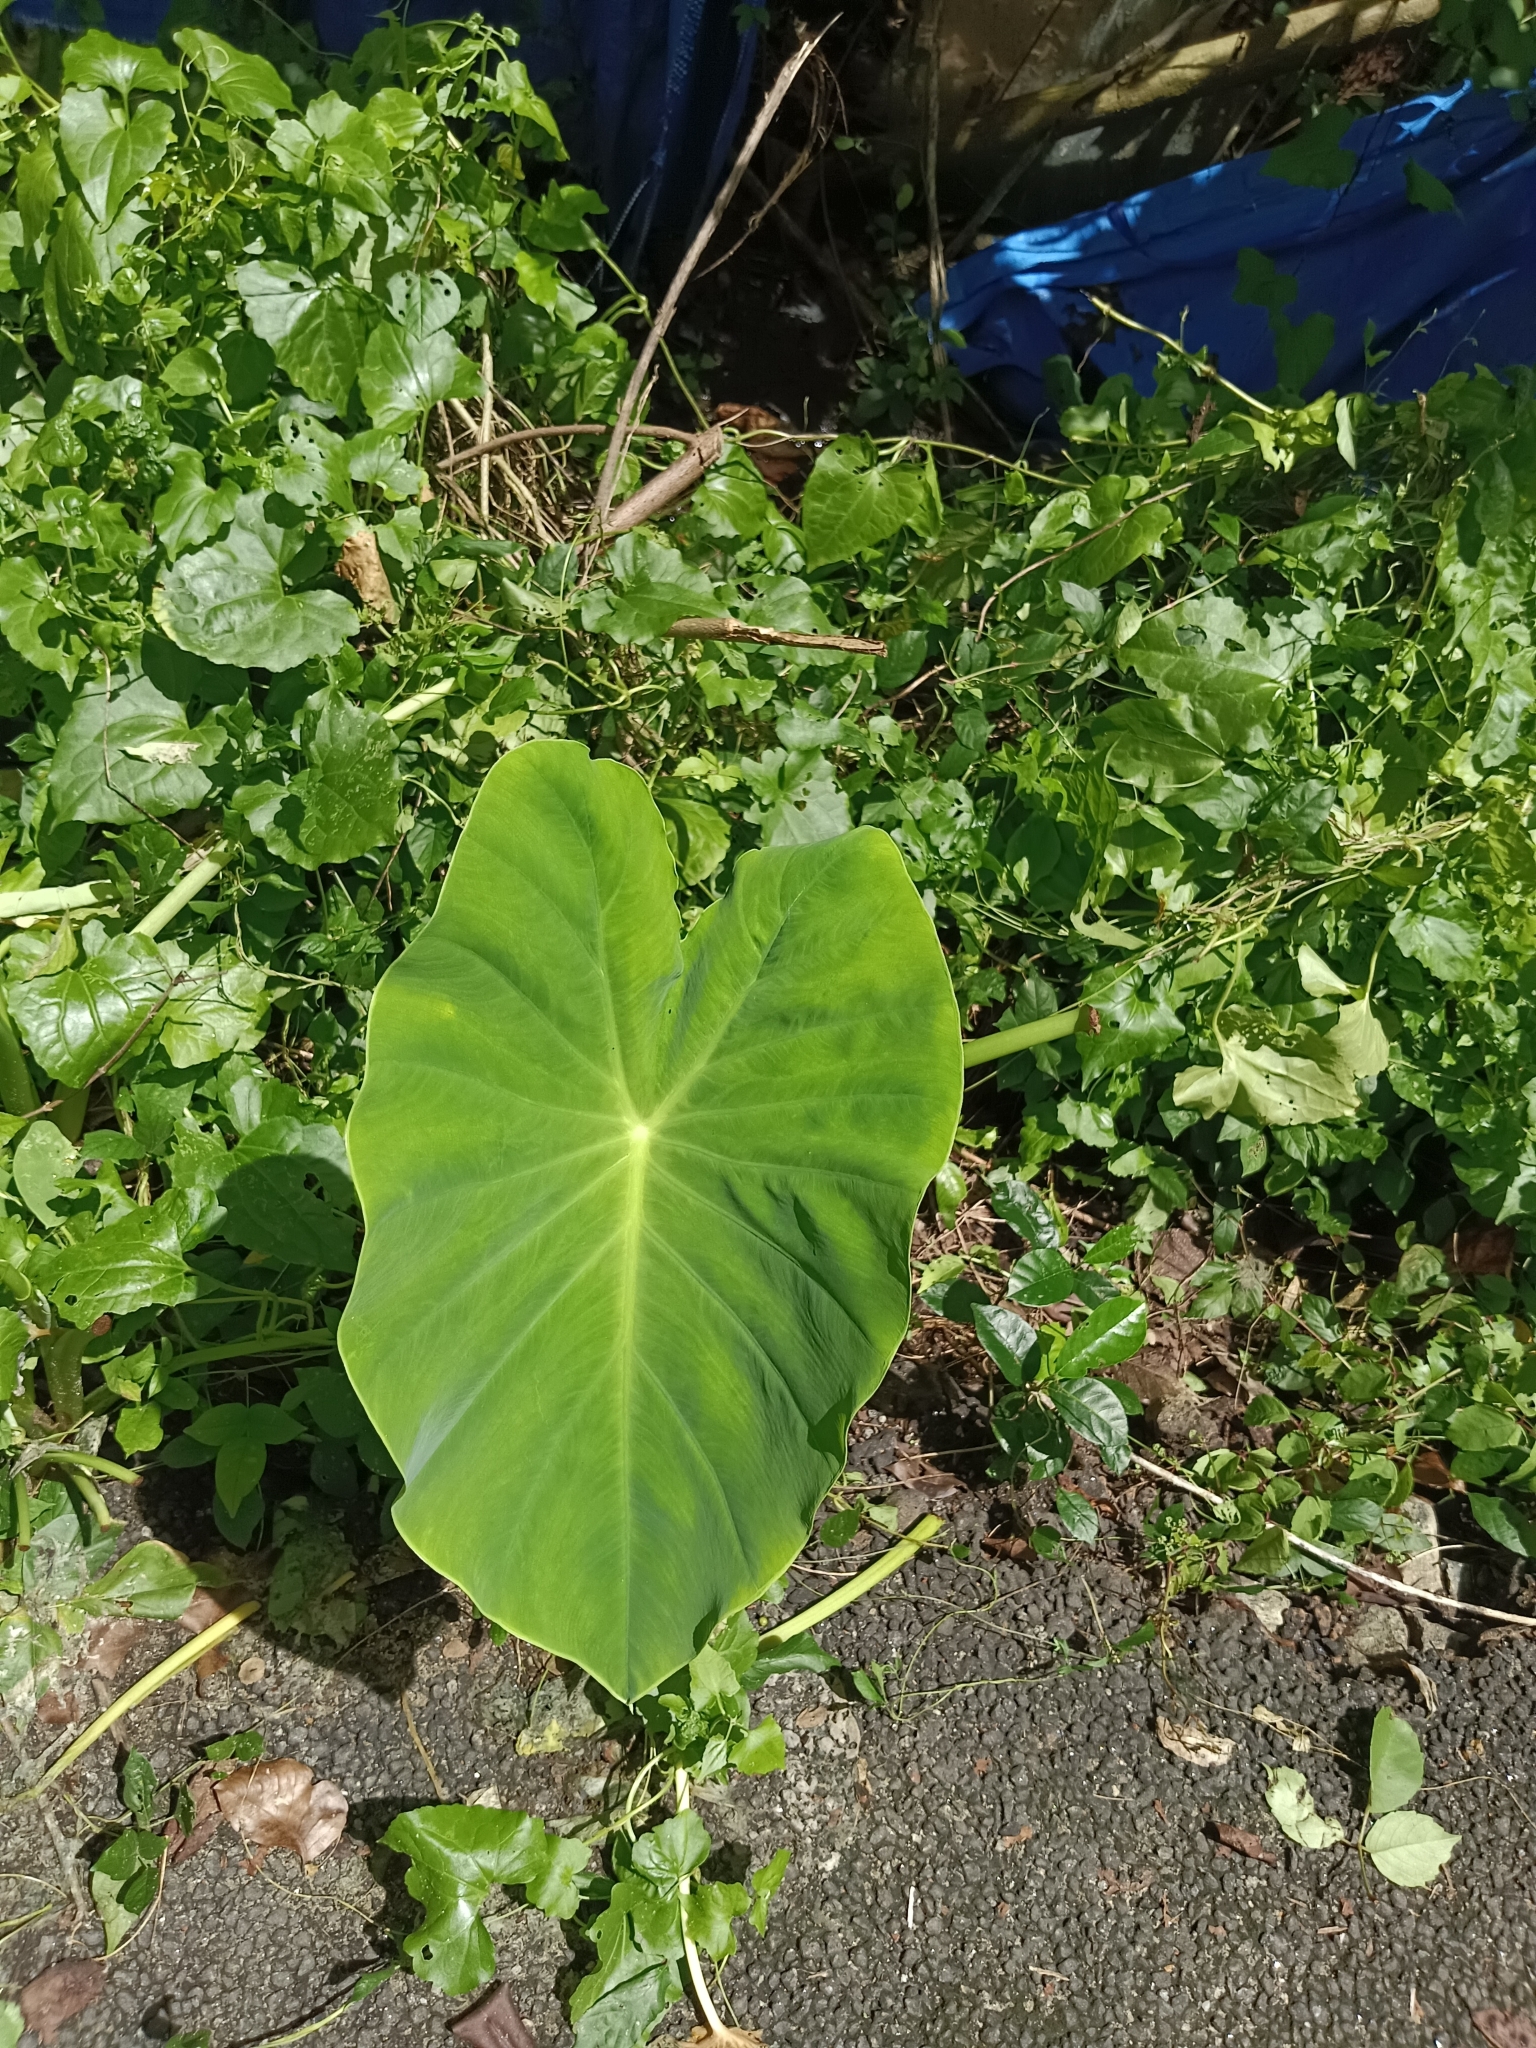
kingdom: Plantae
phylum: Tracheophyta
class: Liliopsida
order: Alismatales
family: Araceae
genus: Colocasia
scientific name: Colocasia esculenta
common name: Taro
